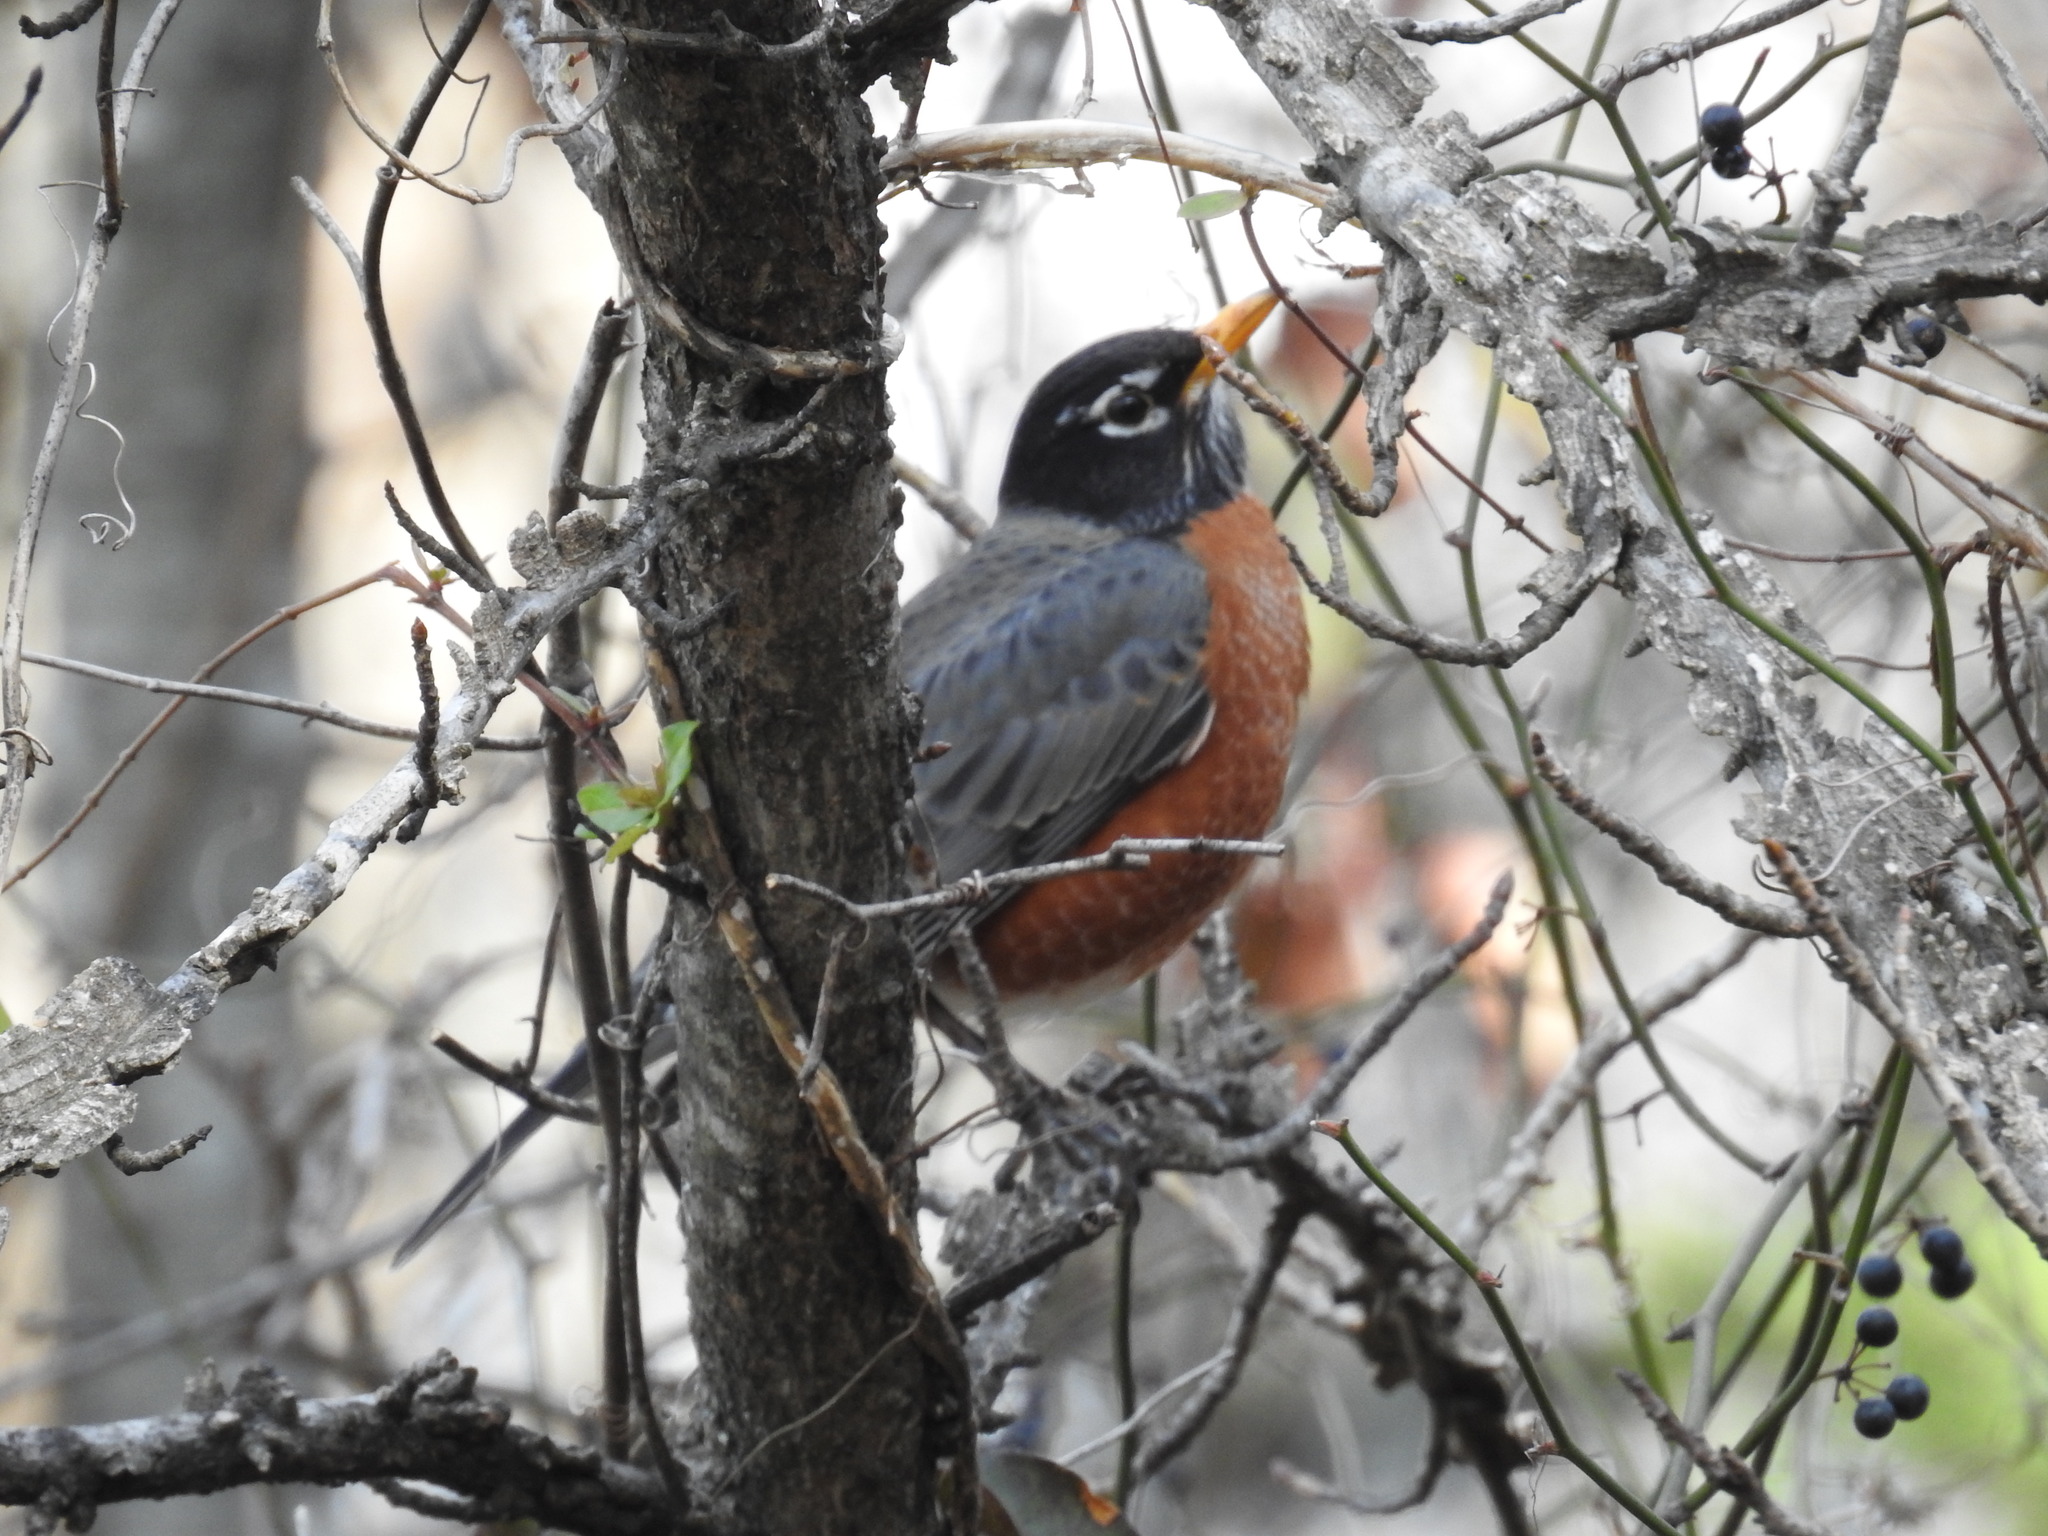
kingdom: Animalia
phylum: Chordata
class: Aves
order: Passeriformes
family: Turdidae
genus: Turdus
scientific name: Turdus migratorius
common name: American robin
